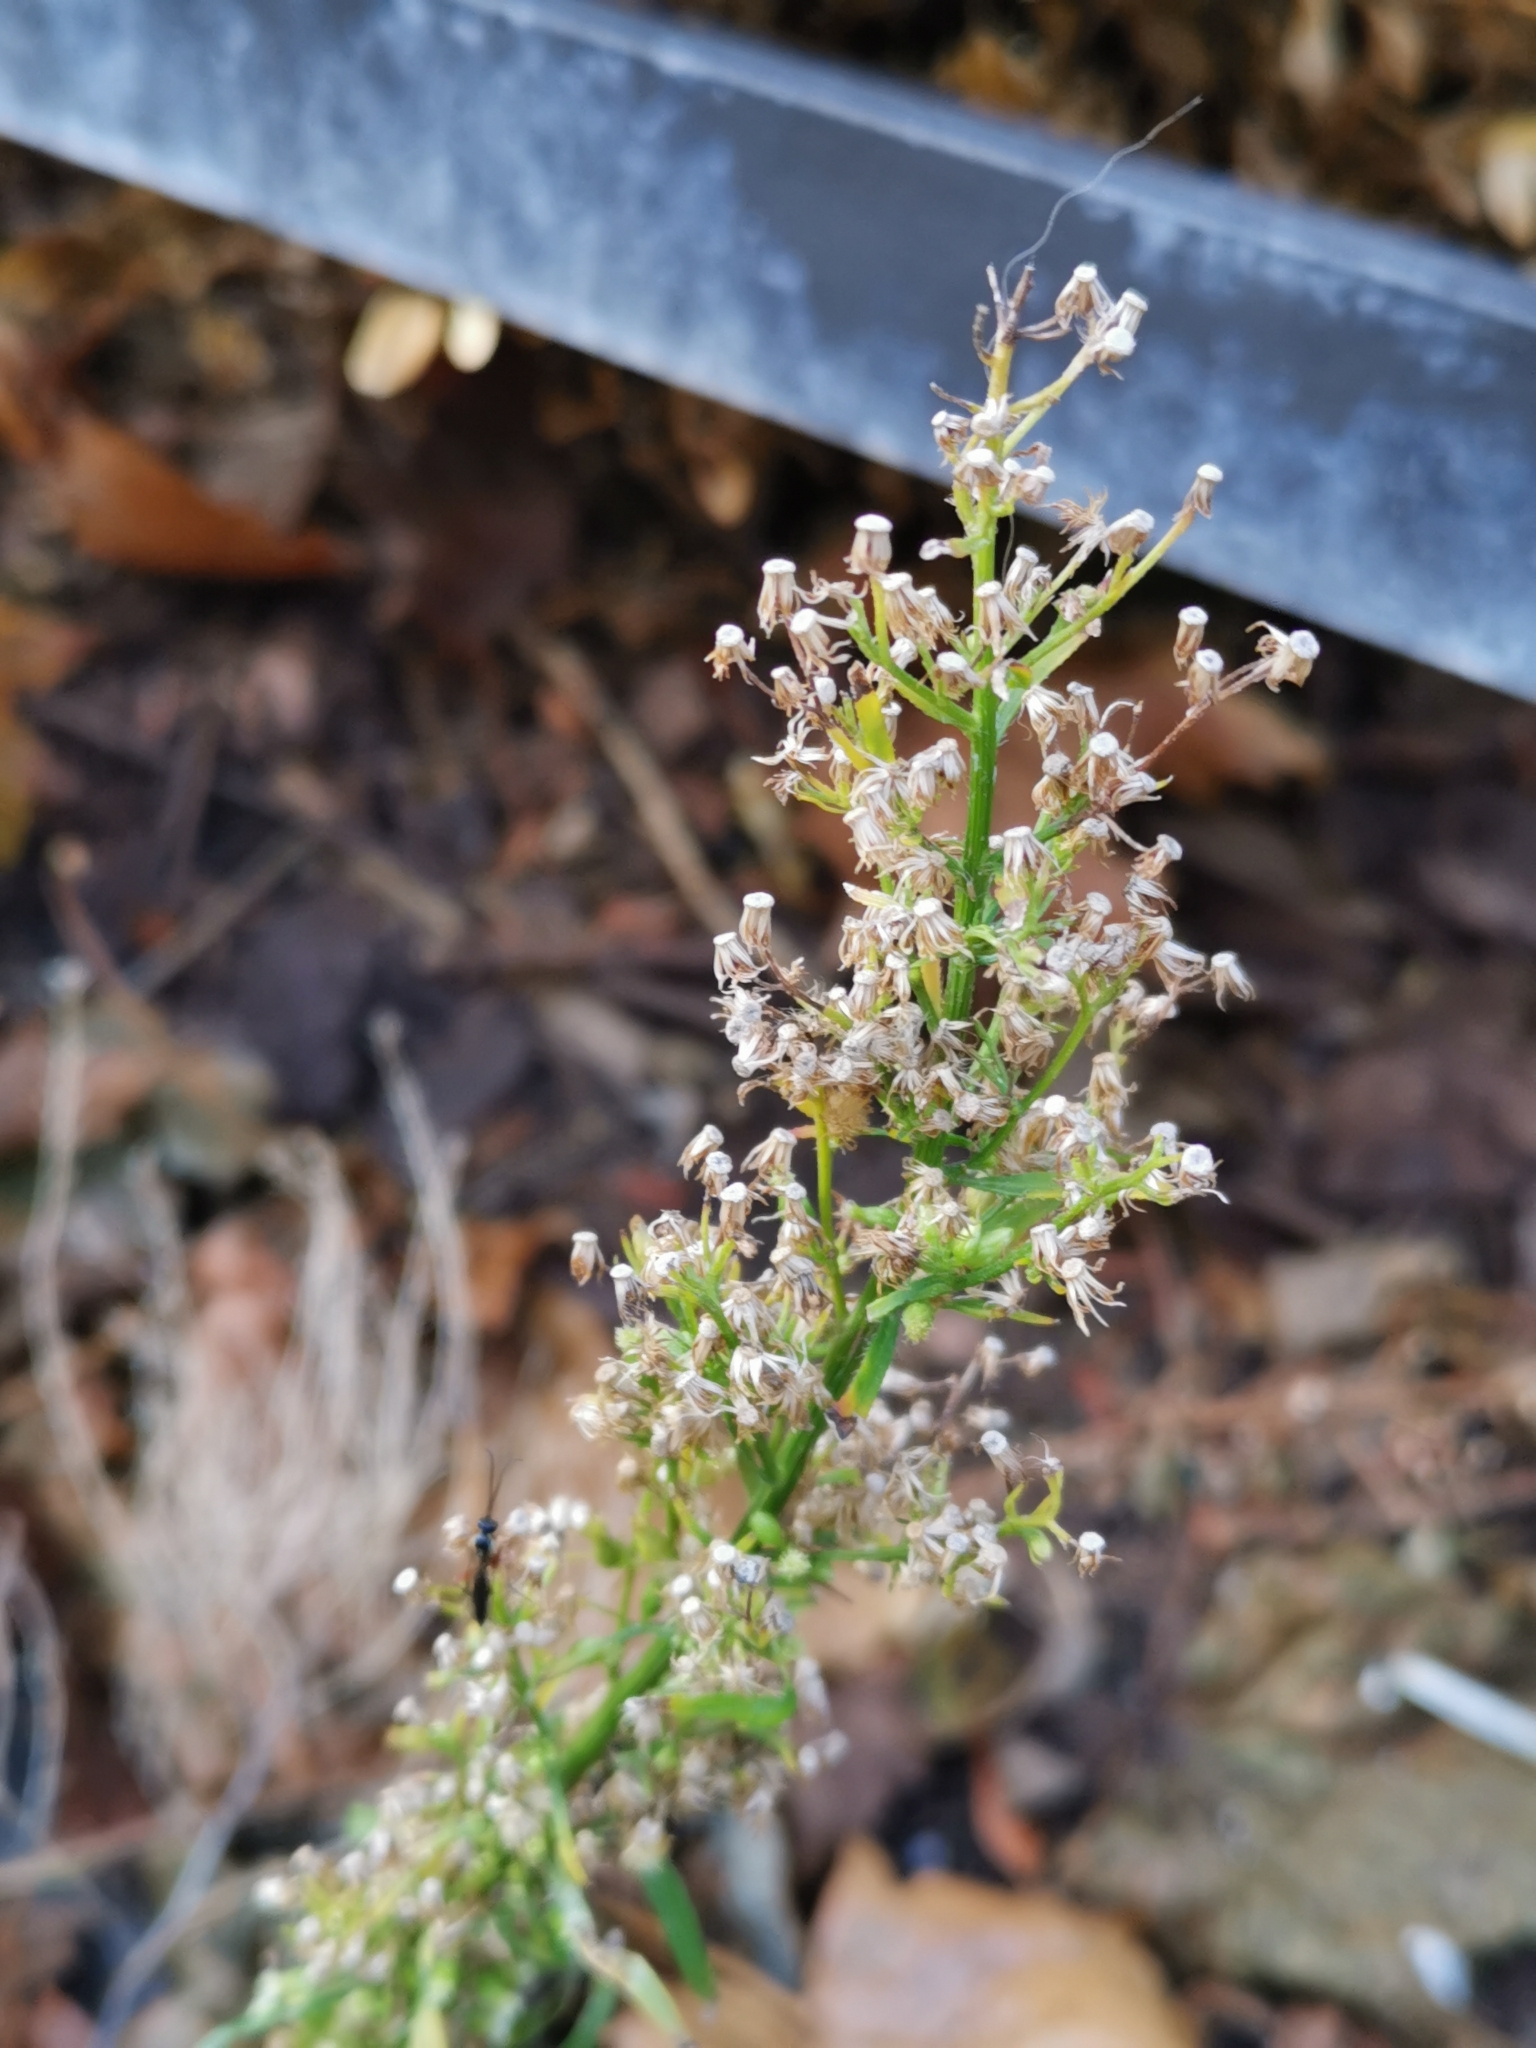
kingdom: Plantae
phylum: Tracheophyta
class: Magnoliopsida
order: Asterales
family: Asteraceae
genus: Erigeron
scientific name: Erigeron canadensis
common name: Canadian fleabane
